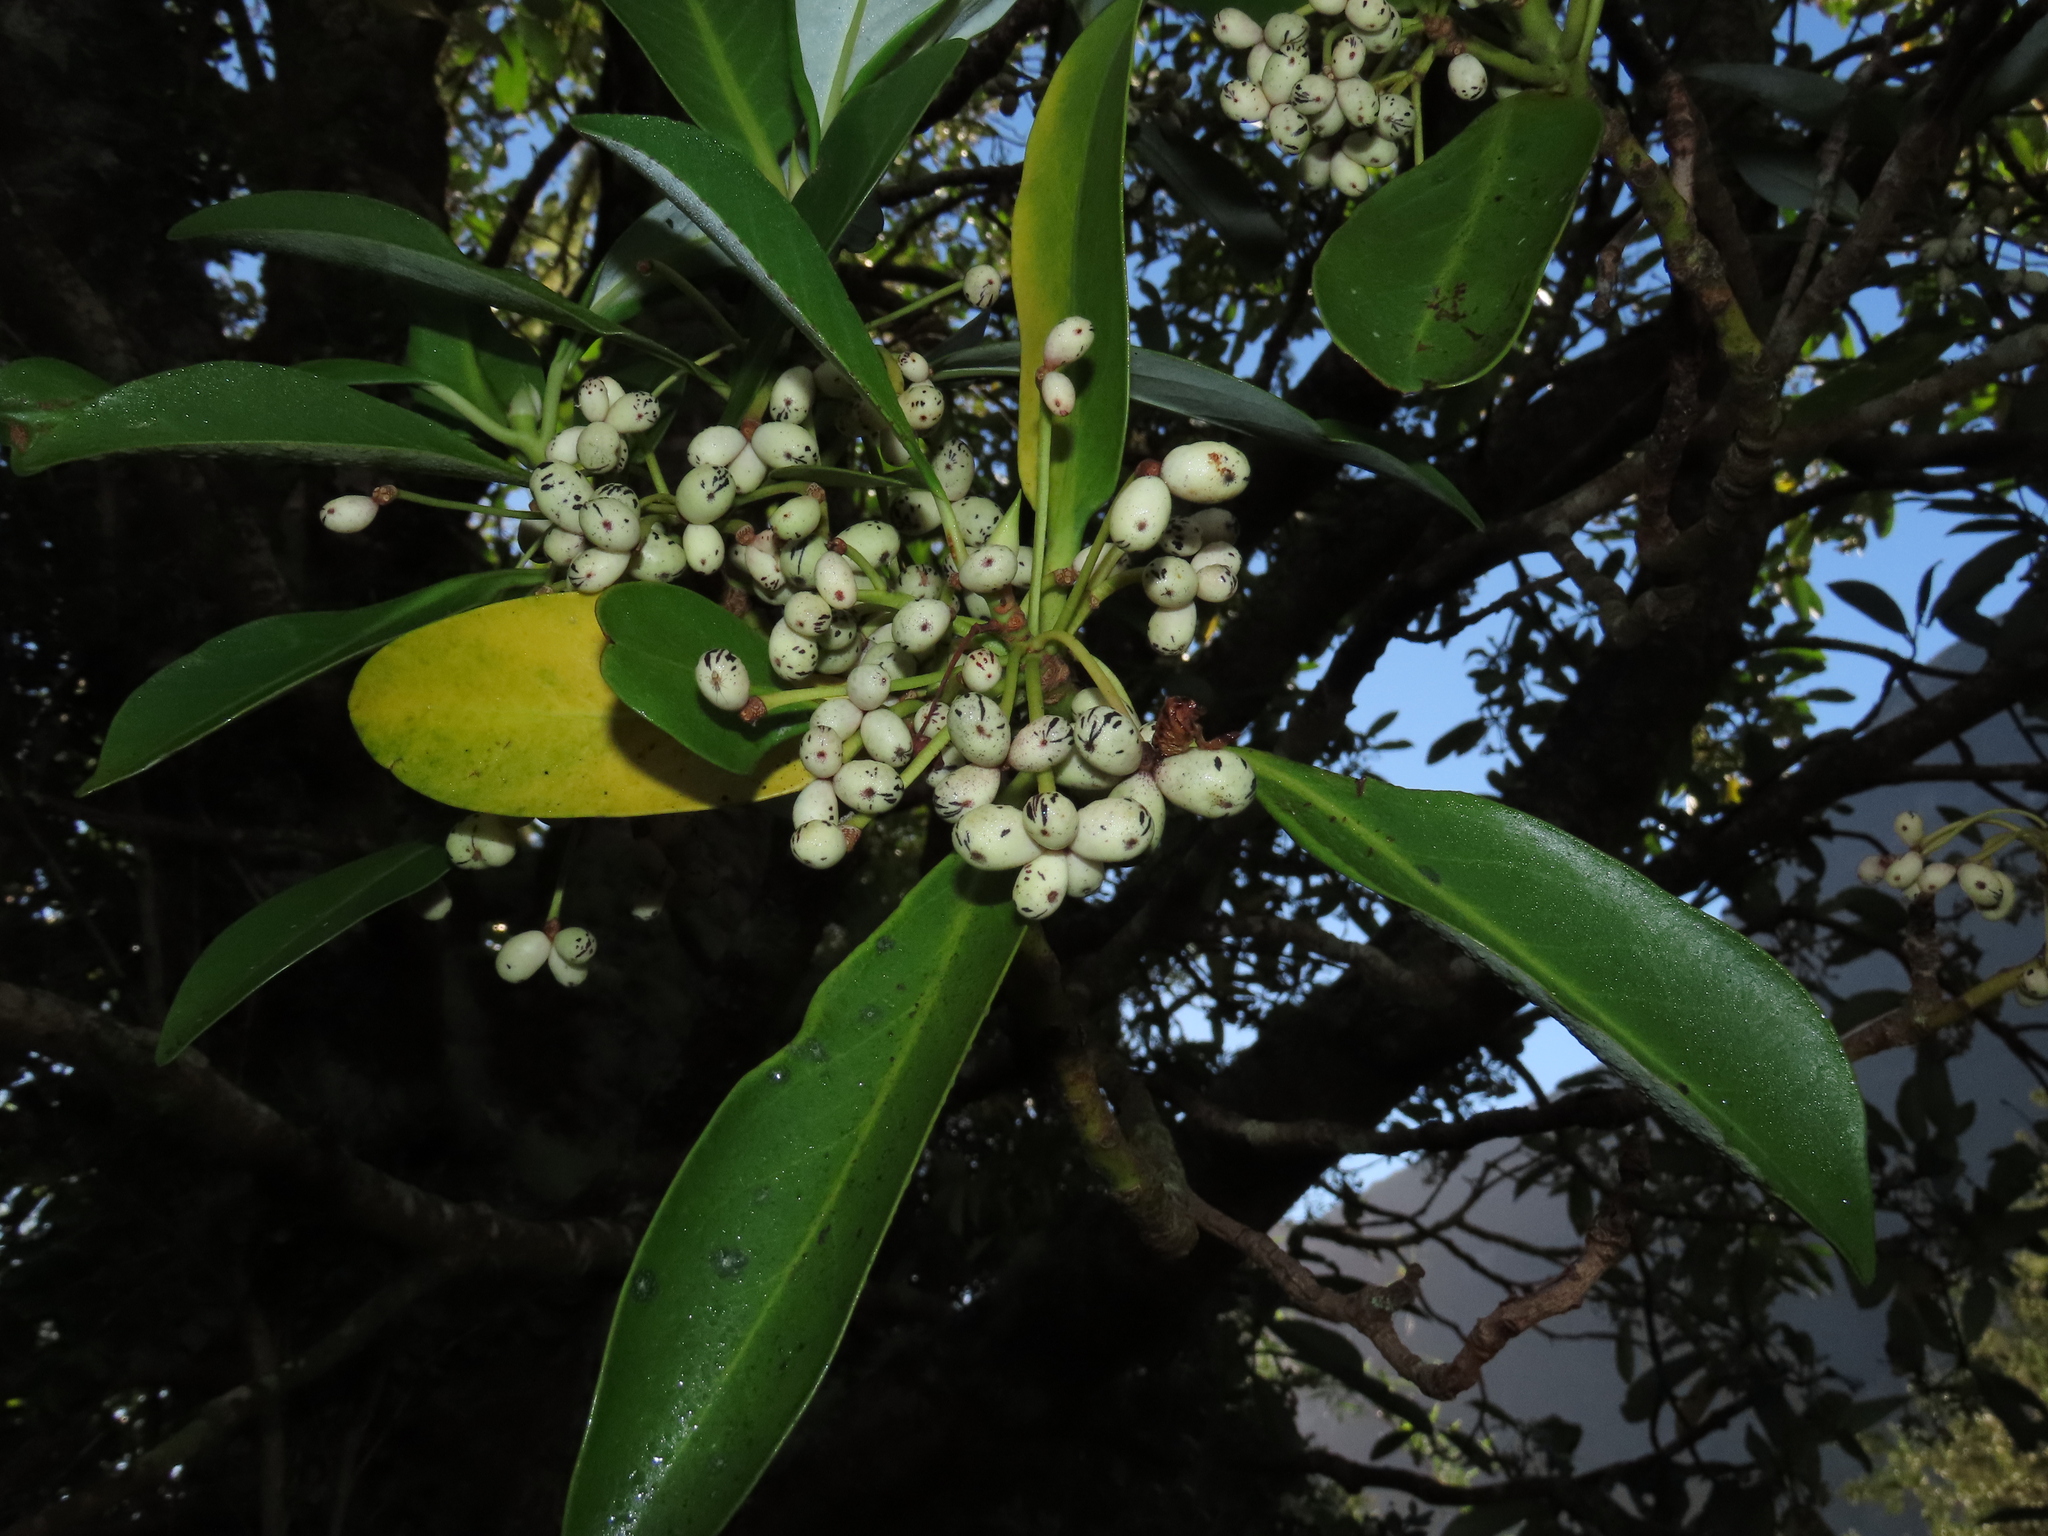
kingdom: Plantae
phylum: Tracheophyta
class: Magnoliopsida
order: Canellales
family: Winteraceae
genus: Drimys
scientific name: Drimys winteri
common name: Winter's-bark
